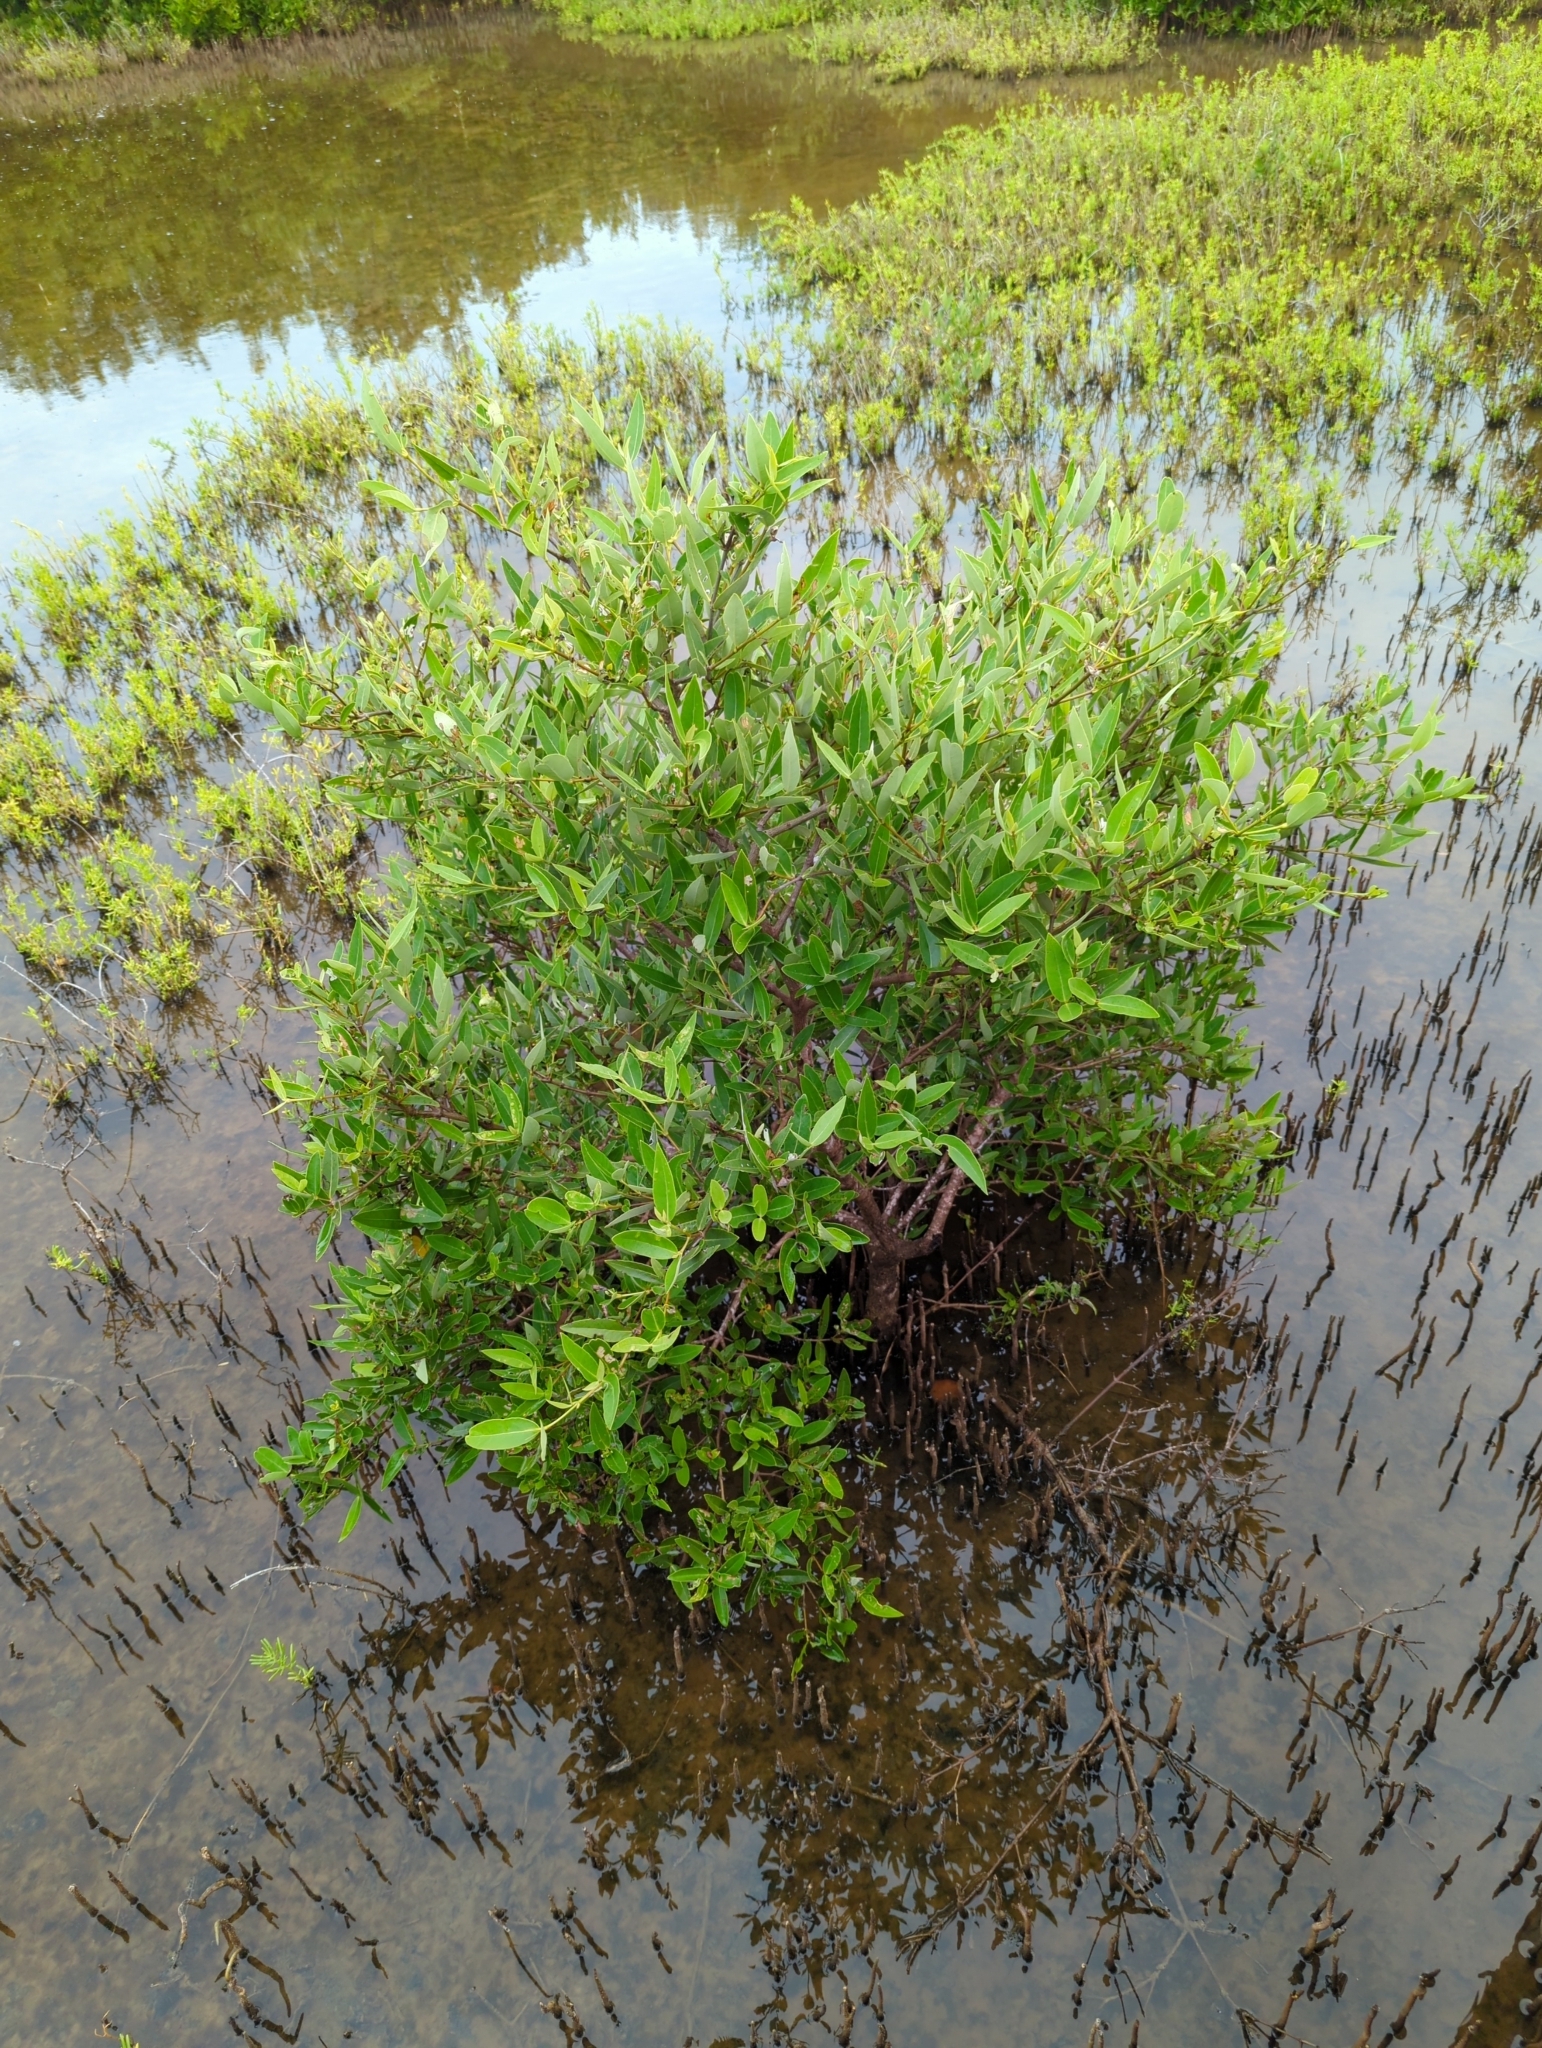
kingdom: Plantae
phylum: Tracheophyta
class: Magnoliopsida
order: Lamiales
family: Acanthaceae
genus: Avicennia
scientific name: Avicennia germinans
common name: Black mangrove
